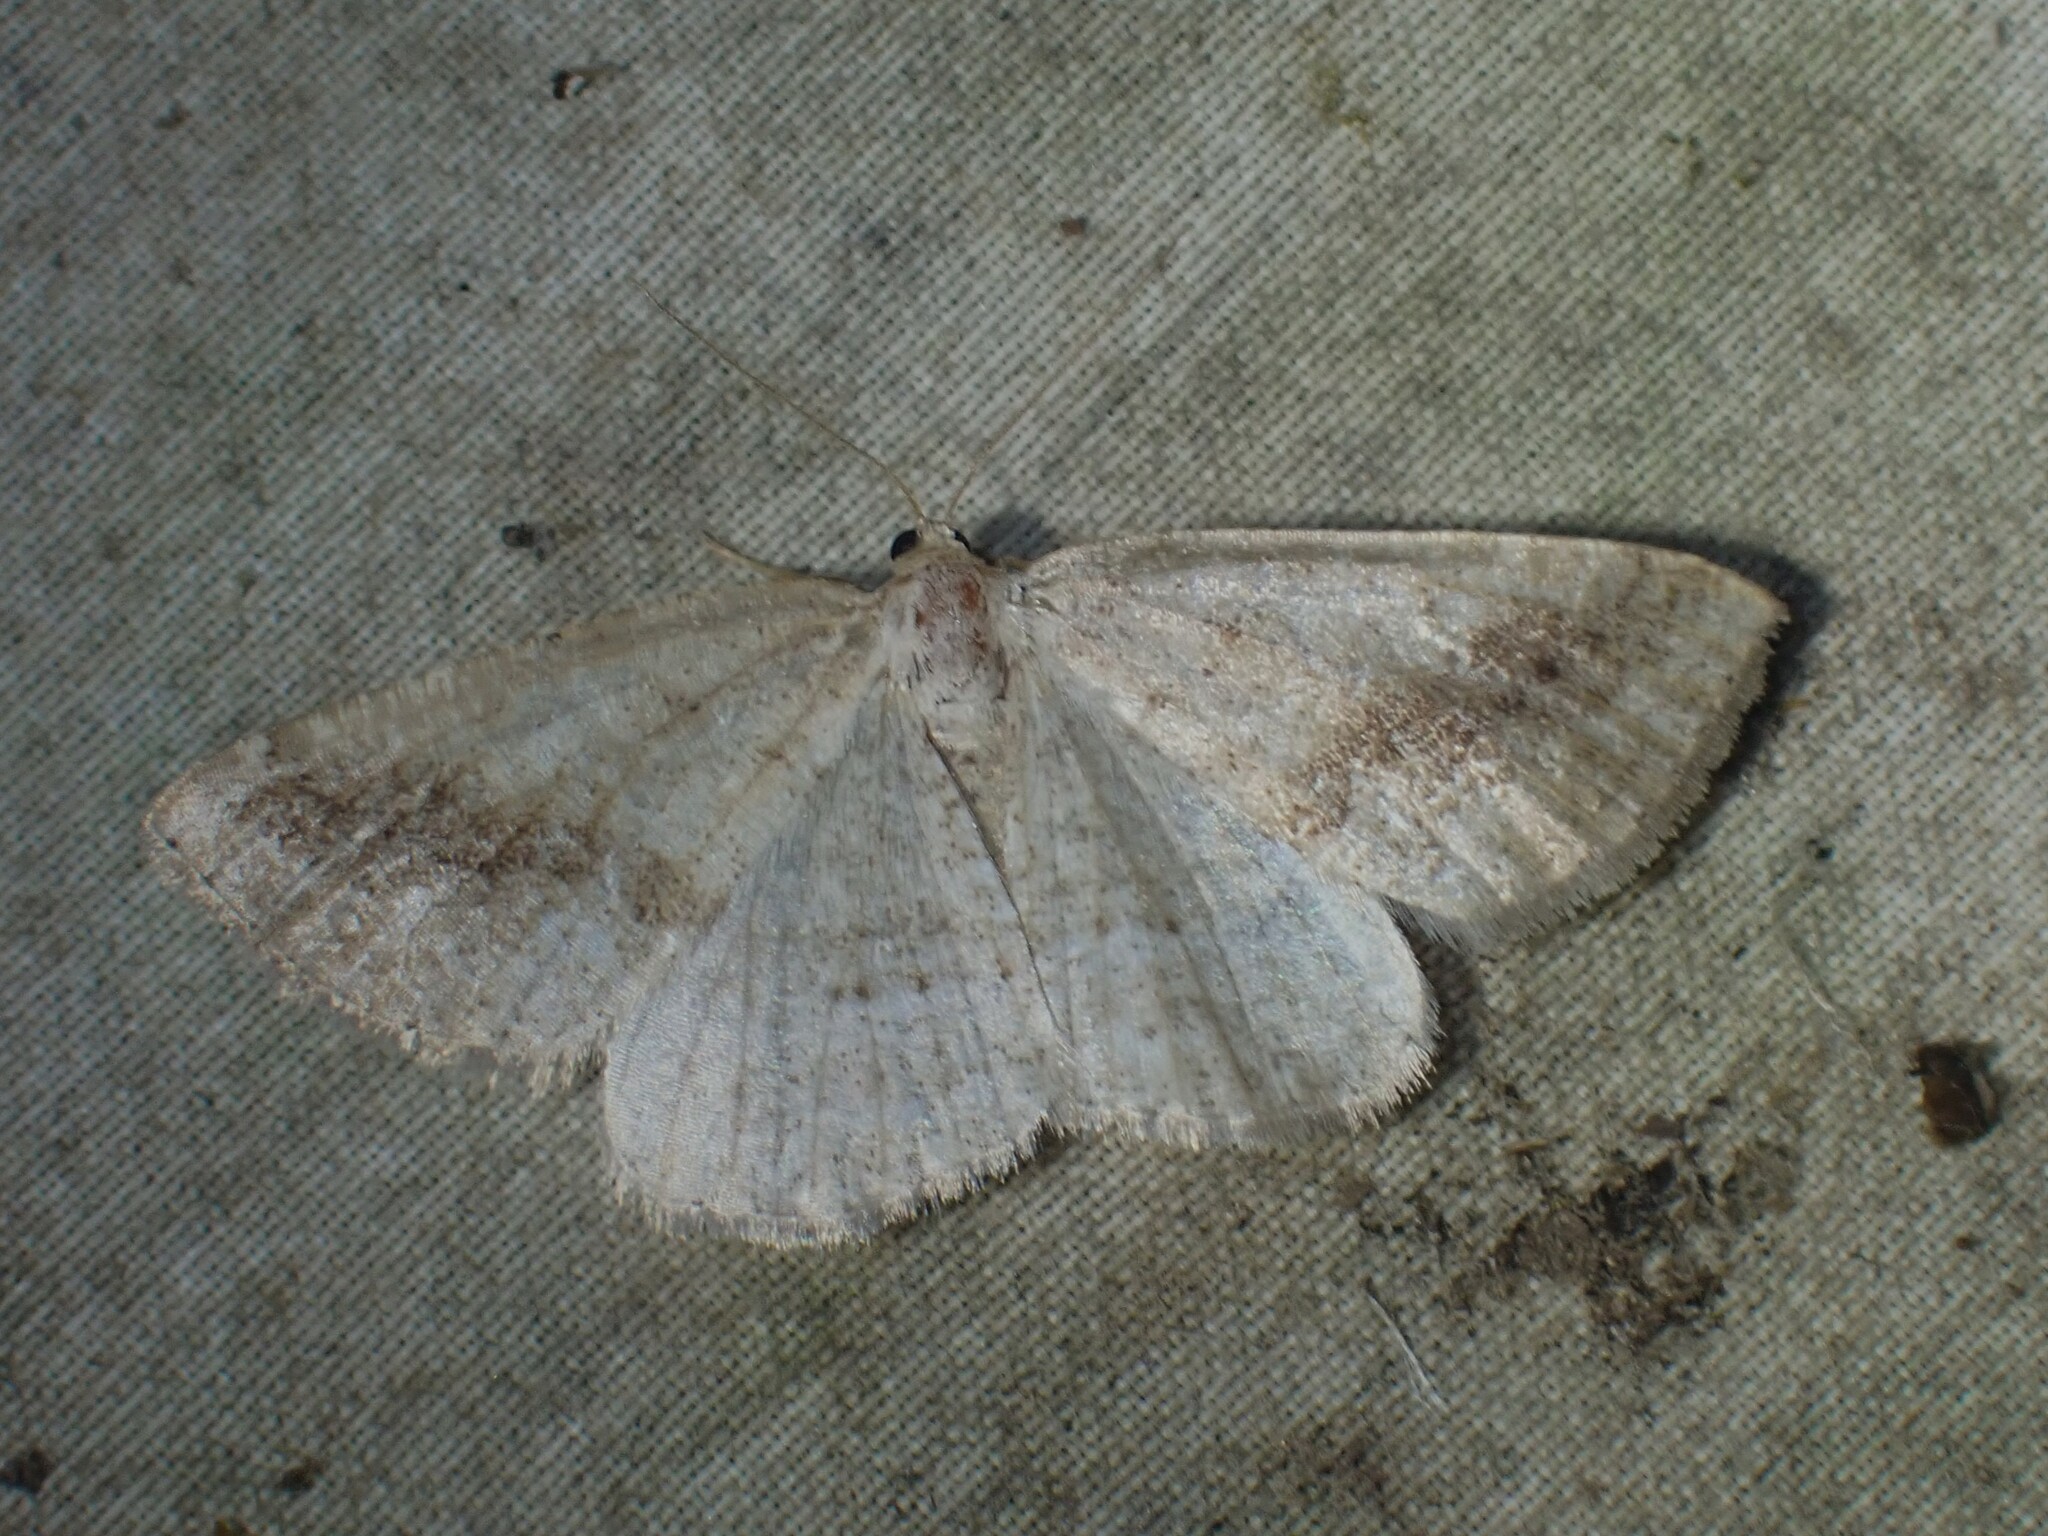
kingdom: Animalia
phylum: Arthropoda
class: Insecta
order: Lepidoptera
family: Geometridae
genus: Tacparia
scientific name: Tacparia detersata
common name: Pale alder moth
